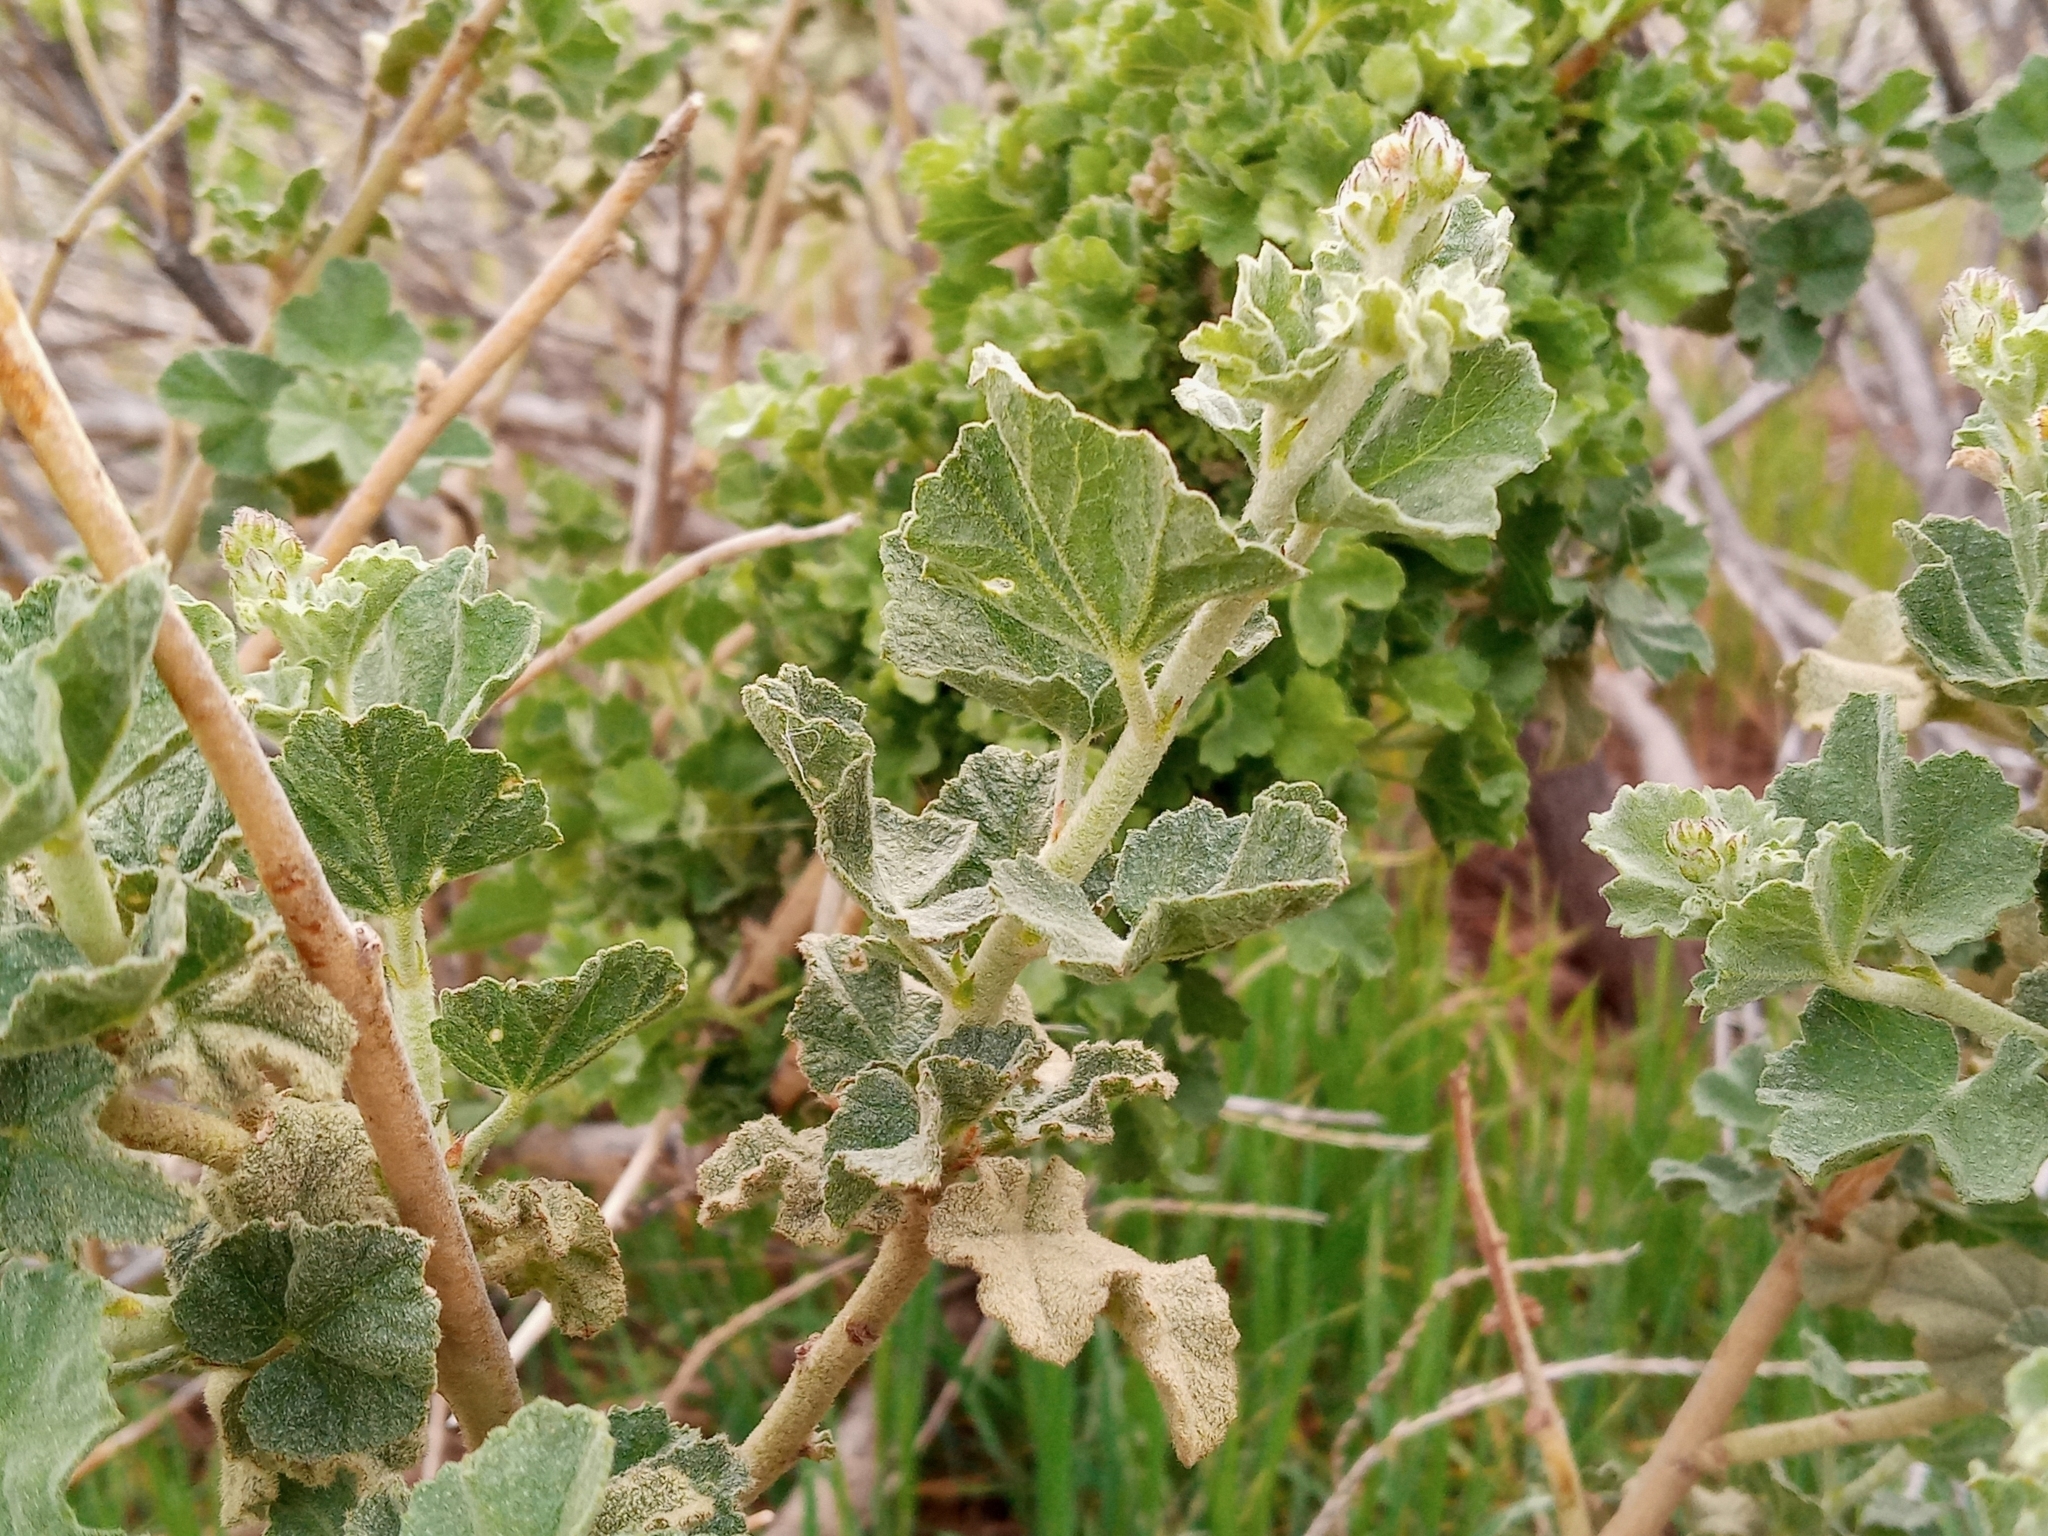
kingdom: Plantae
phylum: Tracheophyta
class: Magnoliopsida
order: Malvales
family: Malvaceae
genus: Malacothamnus
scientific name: Malacothamnus fremontii
